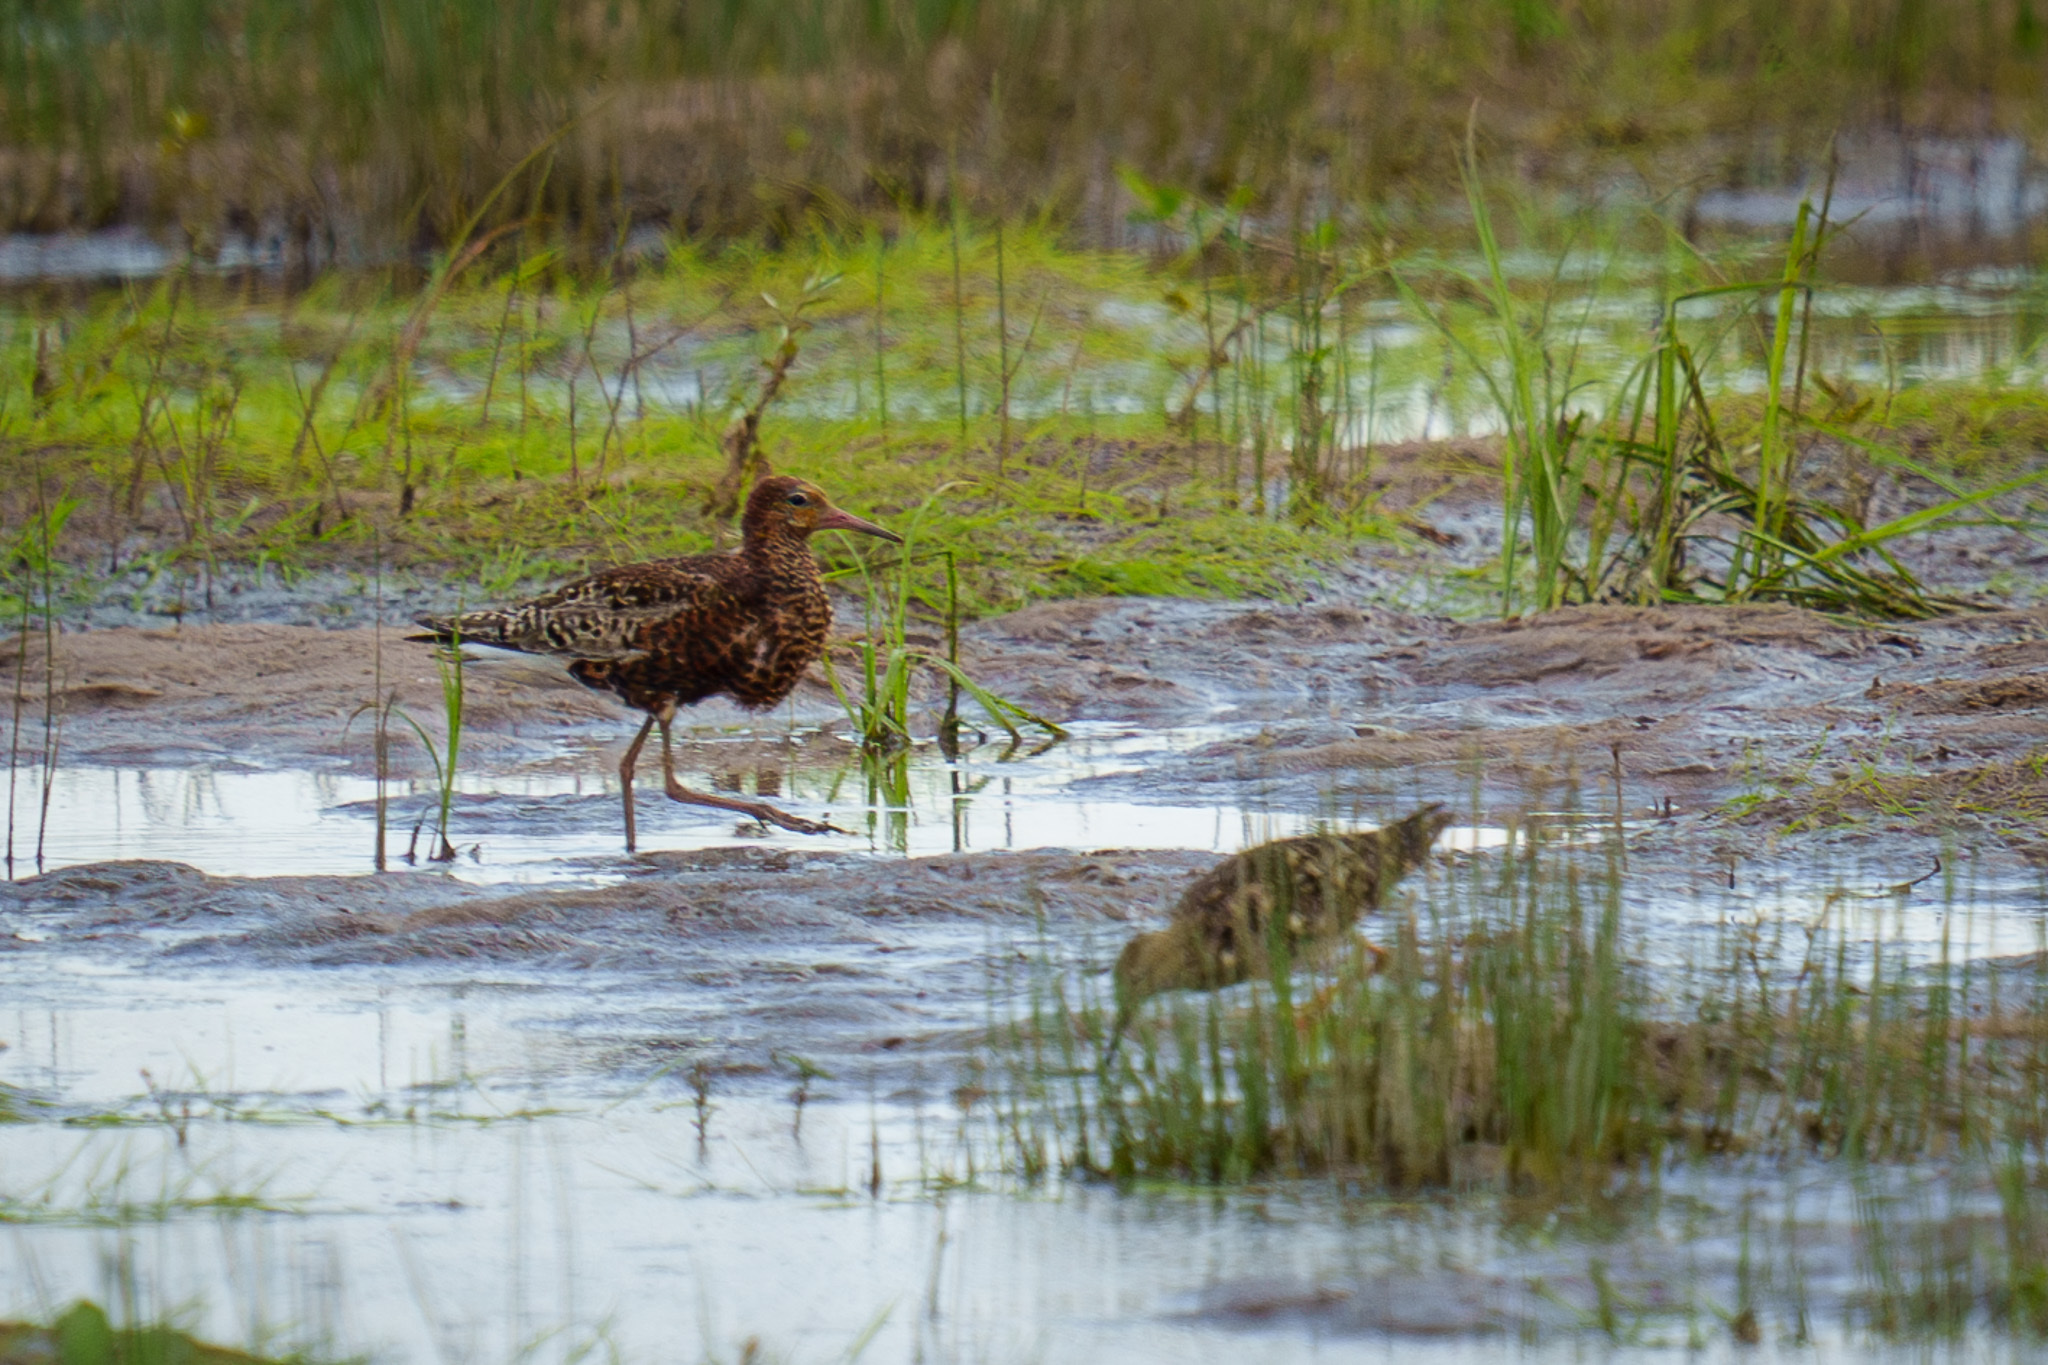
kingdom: Animalia
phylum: Chordata
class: Aves
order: Charadriiformes
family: Scolopacidae
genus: Calidris
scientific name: Calidris pugnax
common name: Ruff
